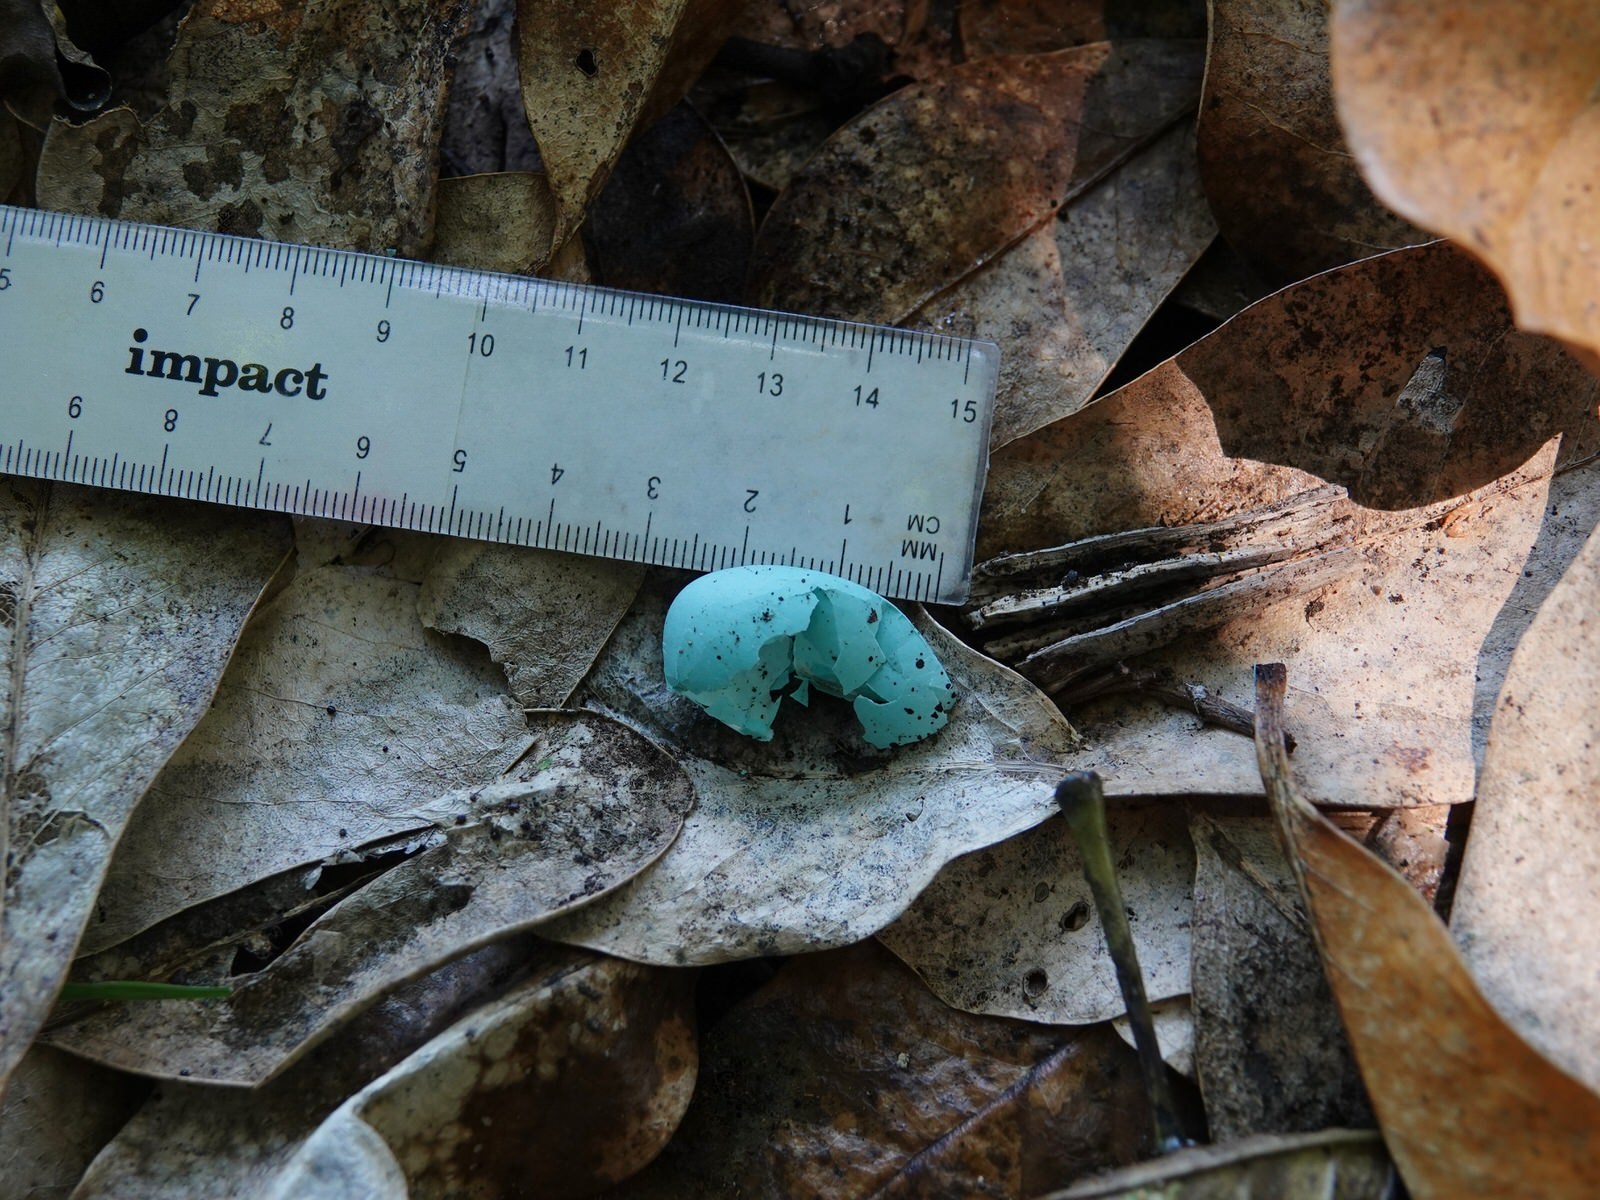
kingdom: Animalia
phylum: Chordata
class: Aves
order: Passeriformes
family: Turdidae
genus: Turdus
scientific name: Turdus philomelos
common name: Song thrush
